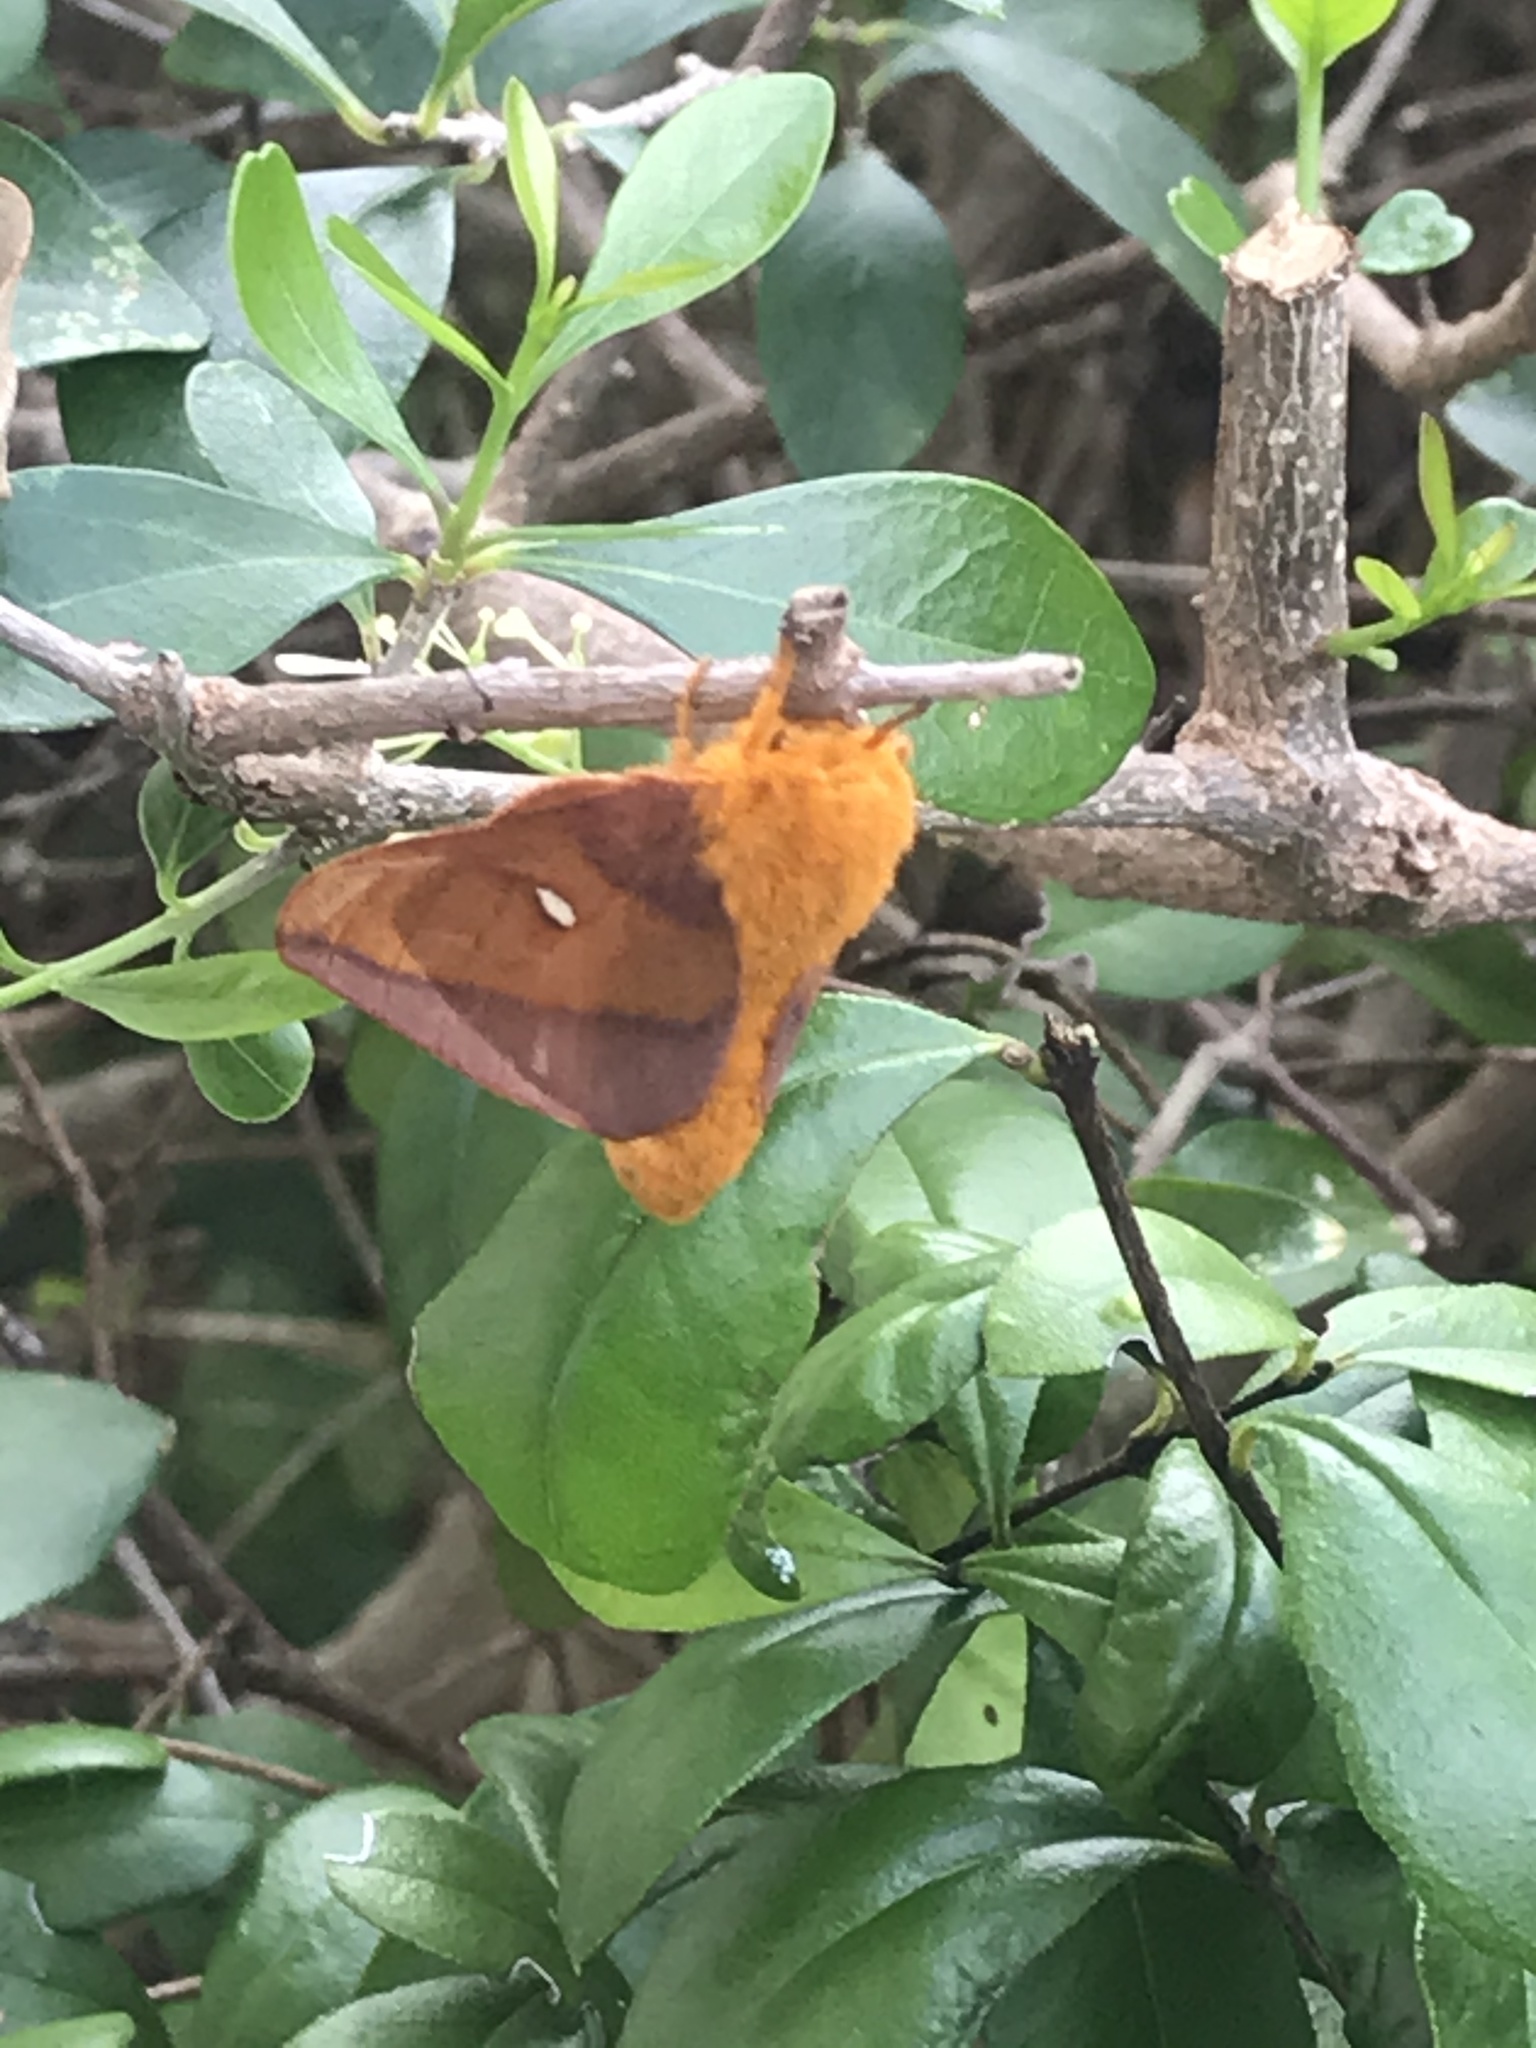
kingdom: Animalia
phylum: Arthropoda
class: Insecta
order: Lepidoptera
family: Saturniidae
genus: Anisota
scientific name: Anisota virginiensis
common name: Pink striped oakworm moth
